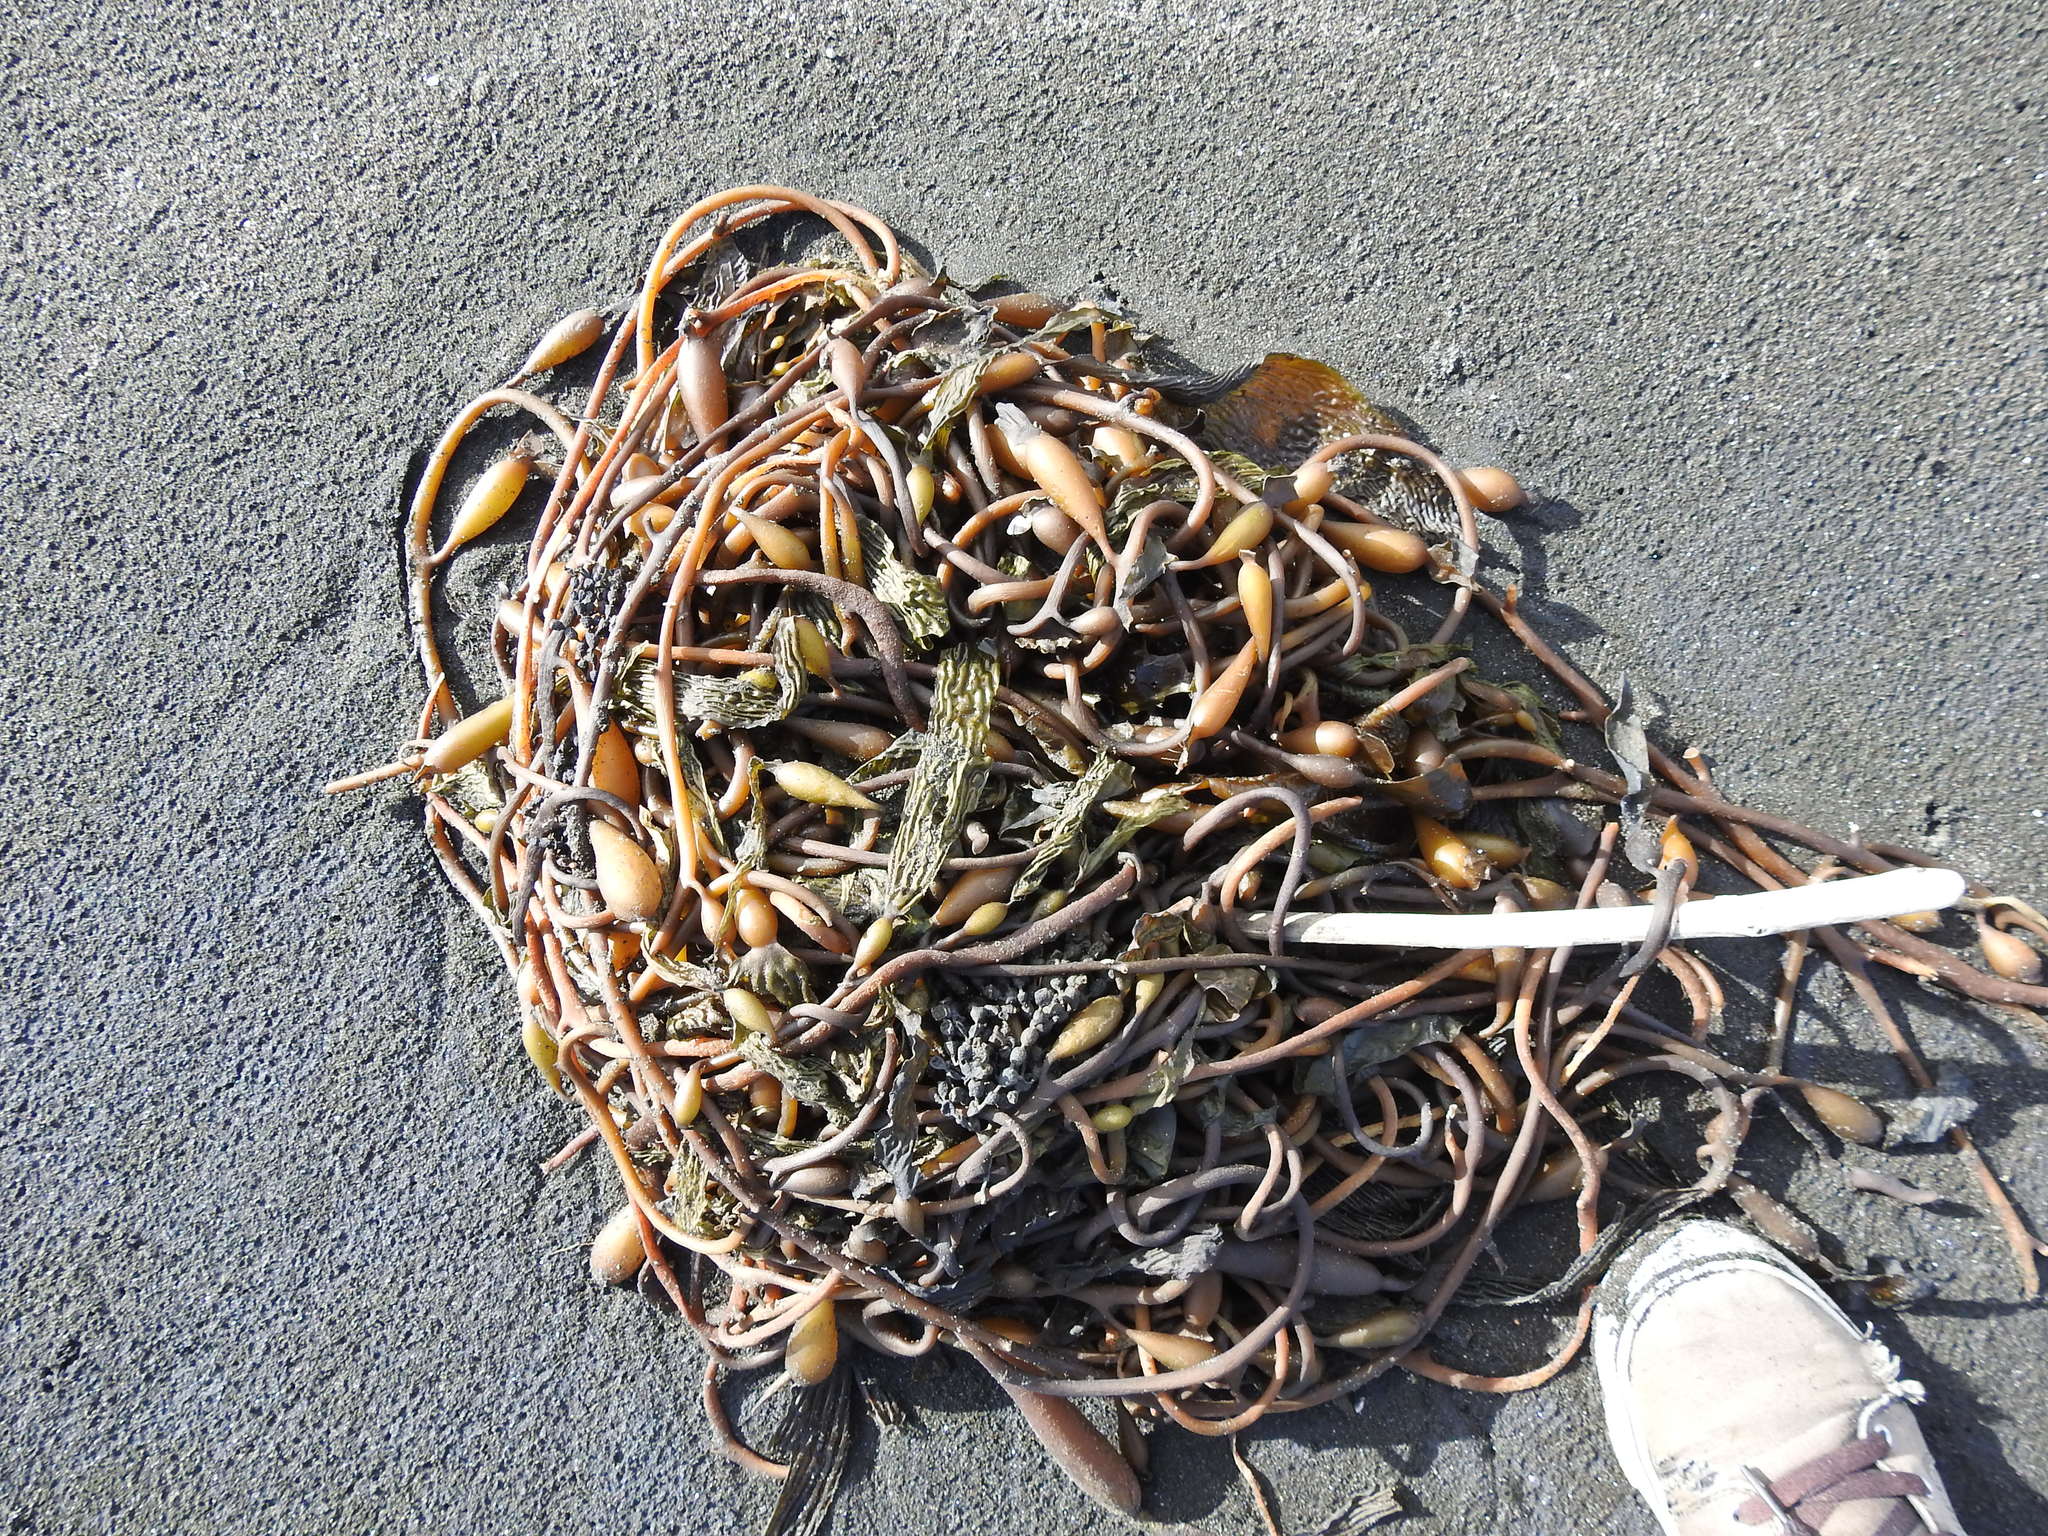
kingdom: Chromista
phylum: Ochrophyta
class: Phaeophyceae
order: Laminariales
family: Laminariaceae
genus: Macrocystis
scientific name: Macrocystis pyrifera
